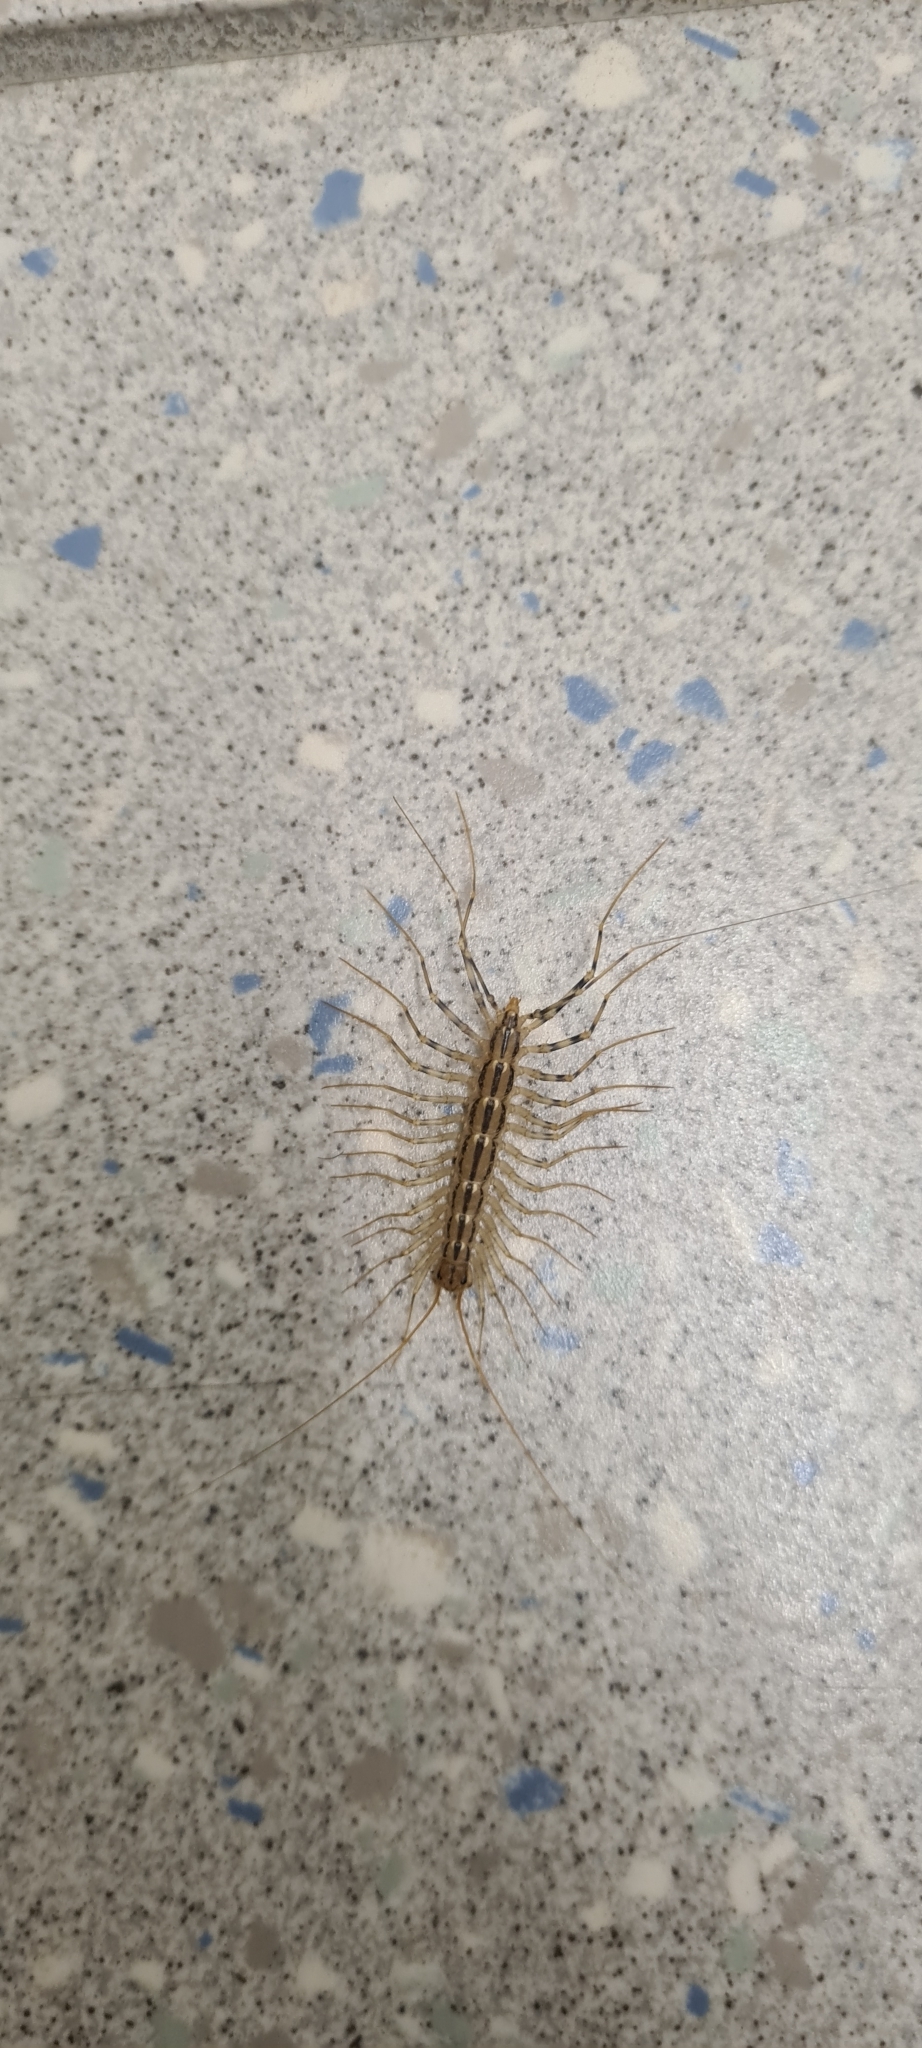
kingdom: Animalia
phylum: Arthropoda
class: Chilopoda
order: Scutigeromorpha
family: Scutigeridae
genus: Scutigera
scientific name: Scutigera coleoptrata
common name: House centipede
